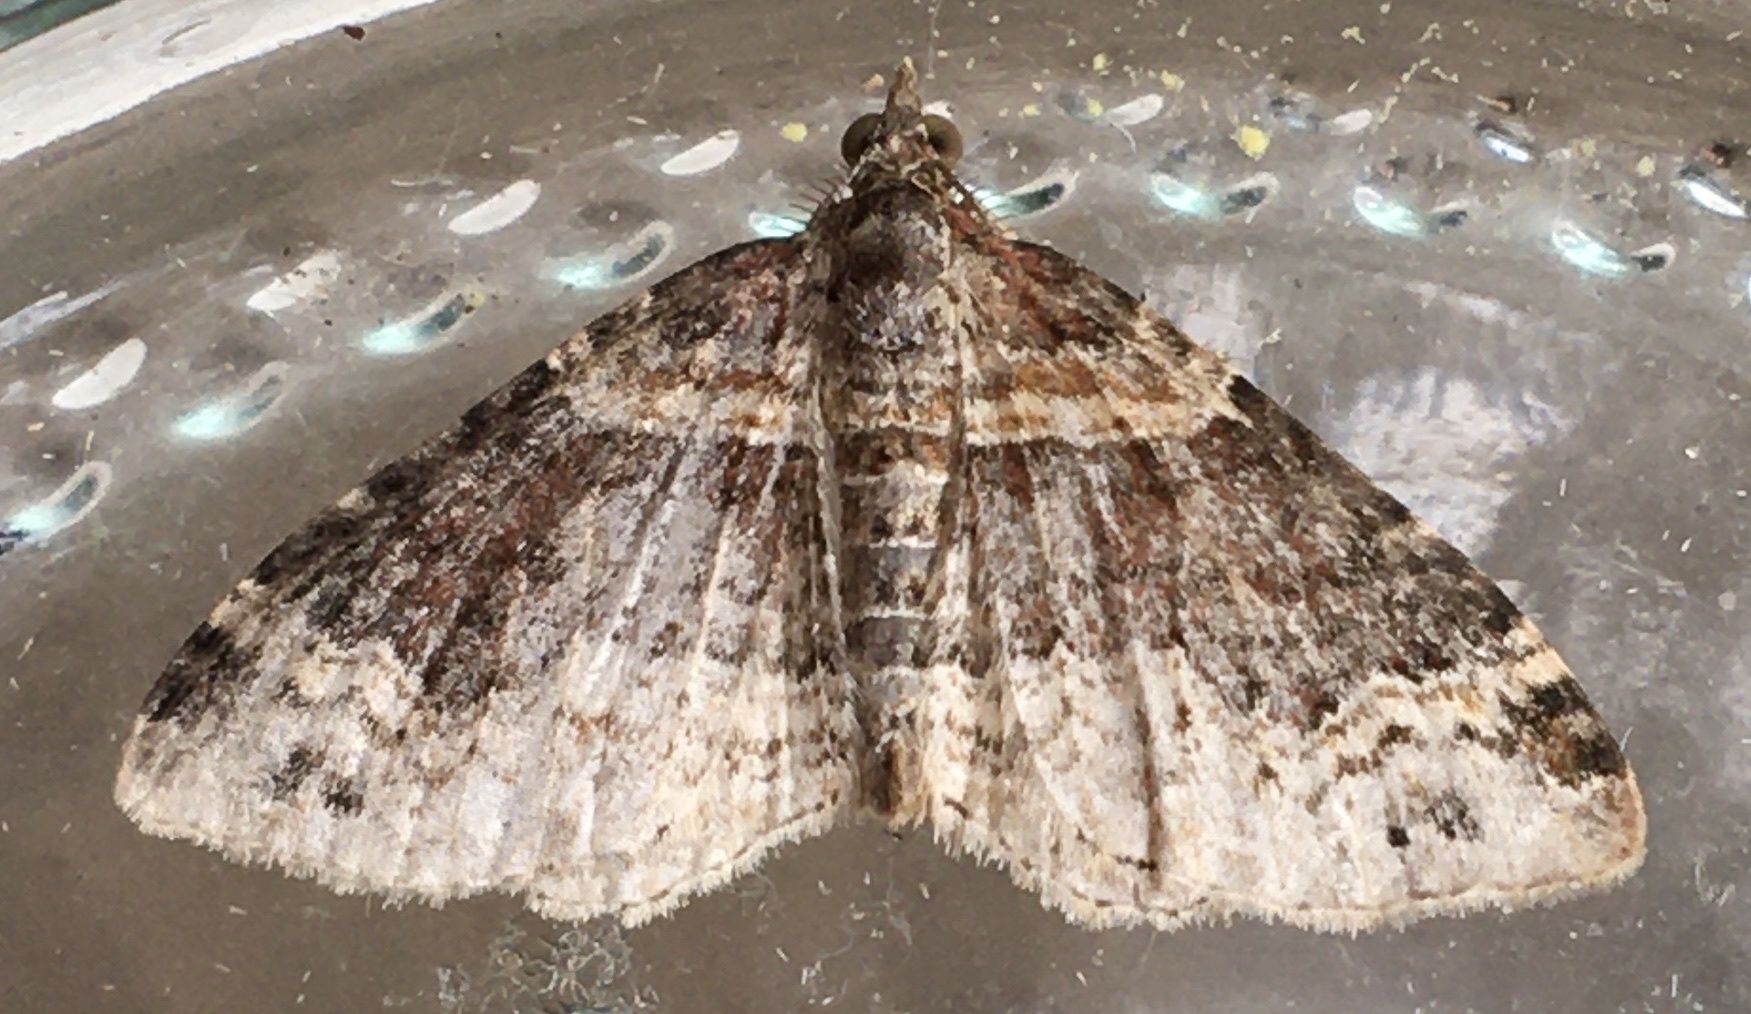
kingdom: Animalia
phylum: Arthropoda
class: Insecta
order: Lepidoptera
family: Geometridae
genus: Xanthorhoe
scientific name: Xanthorhoe ferrugata
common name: Dark-barred twin-spot carpet
